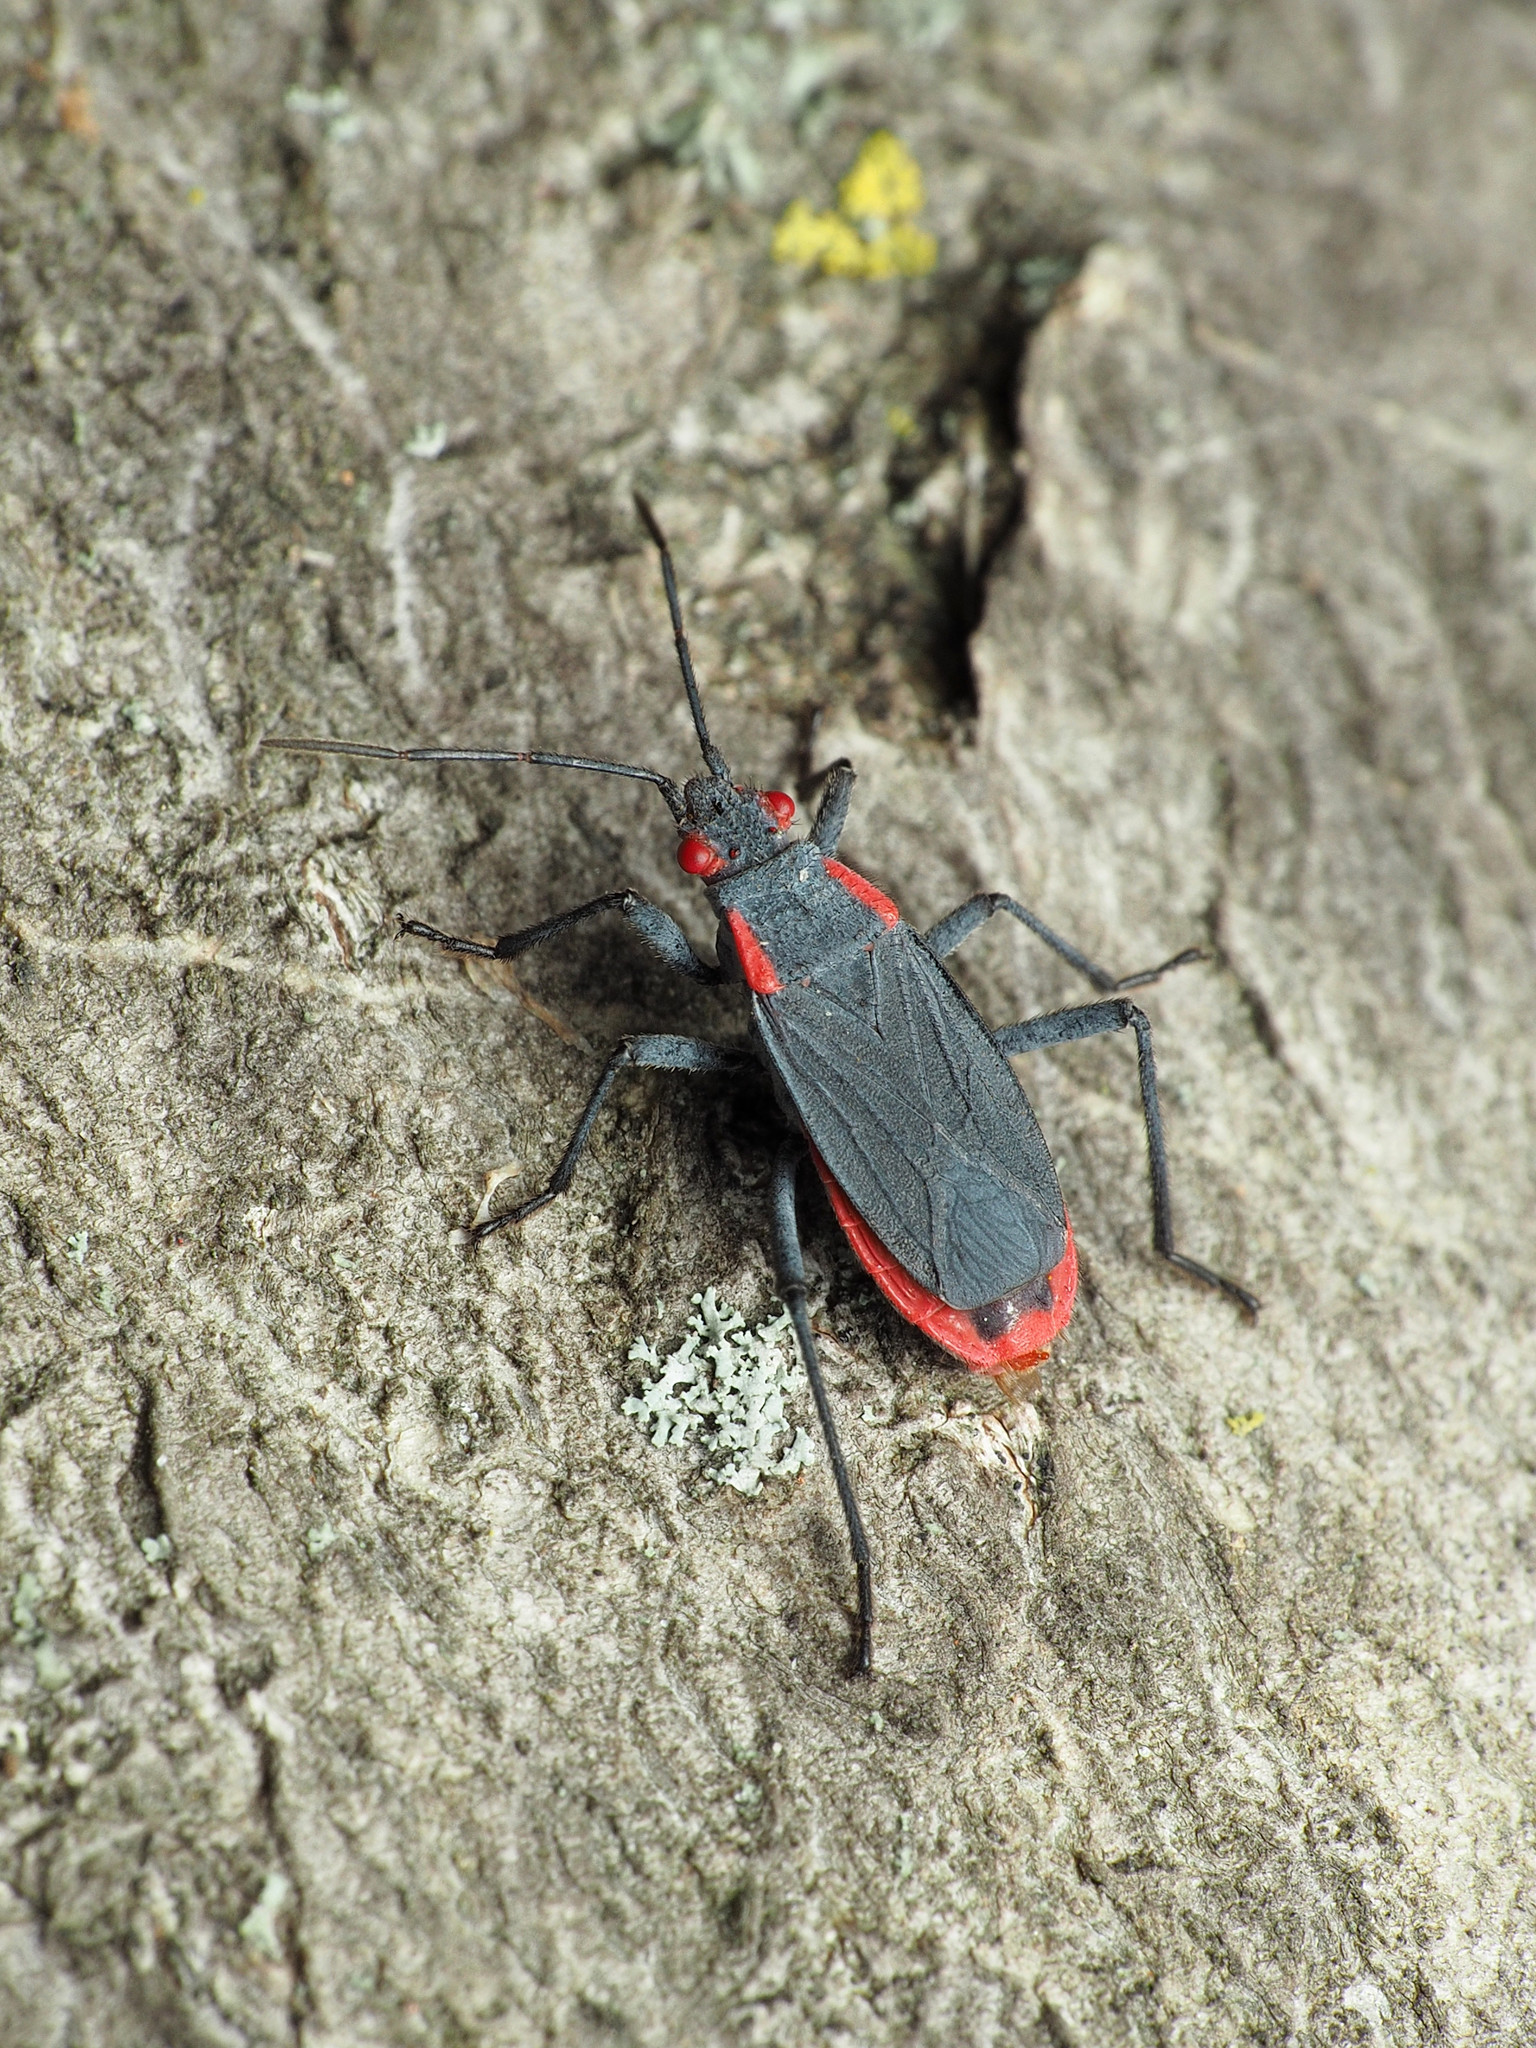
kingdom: Animalia
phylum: Arthropoda
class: Insecta
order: Hemiptera
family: Rhopalidae
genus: Jadera
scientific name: Jadera haematoloma
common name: Red-shouldered bug
